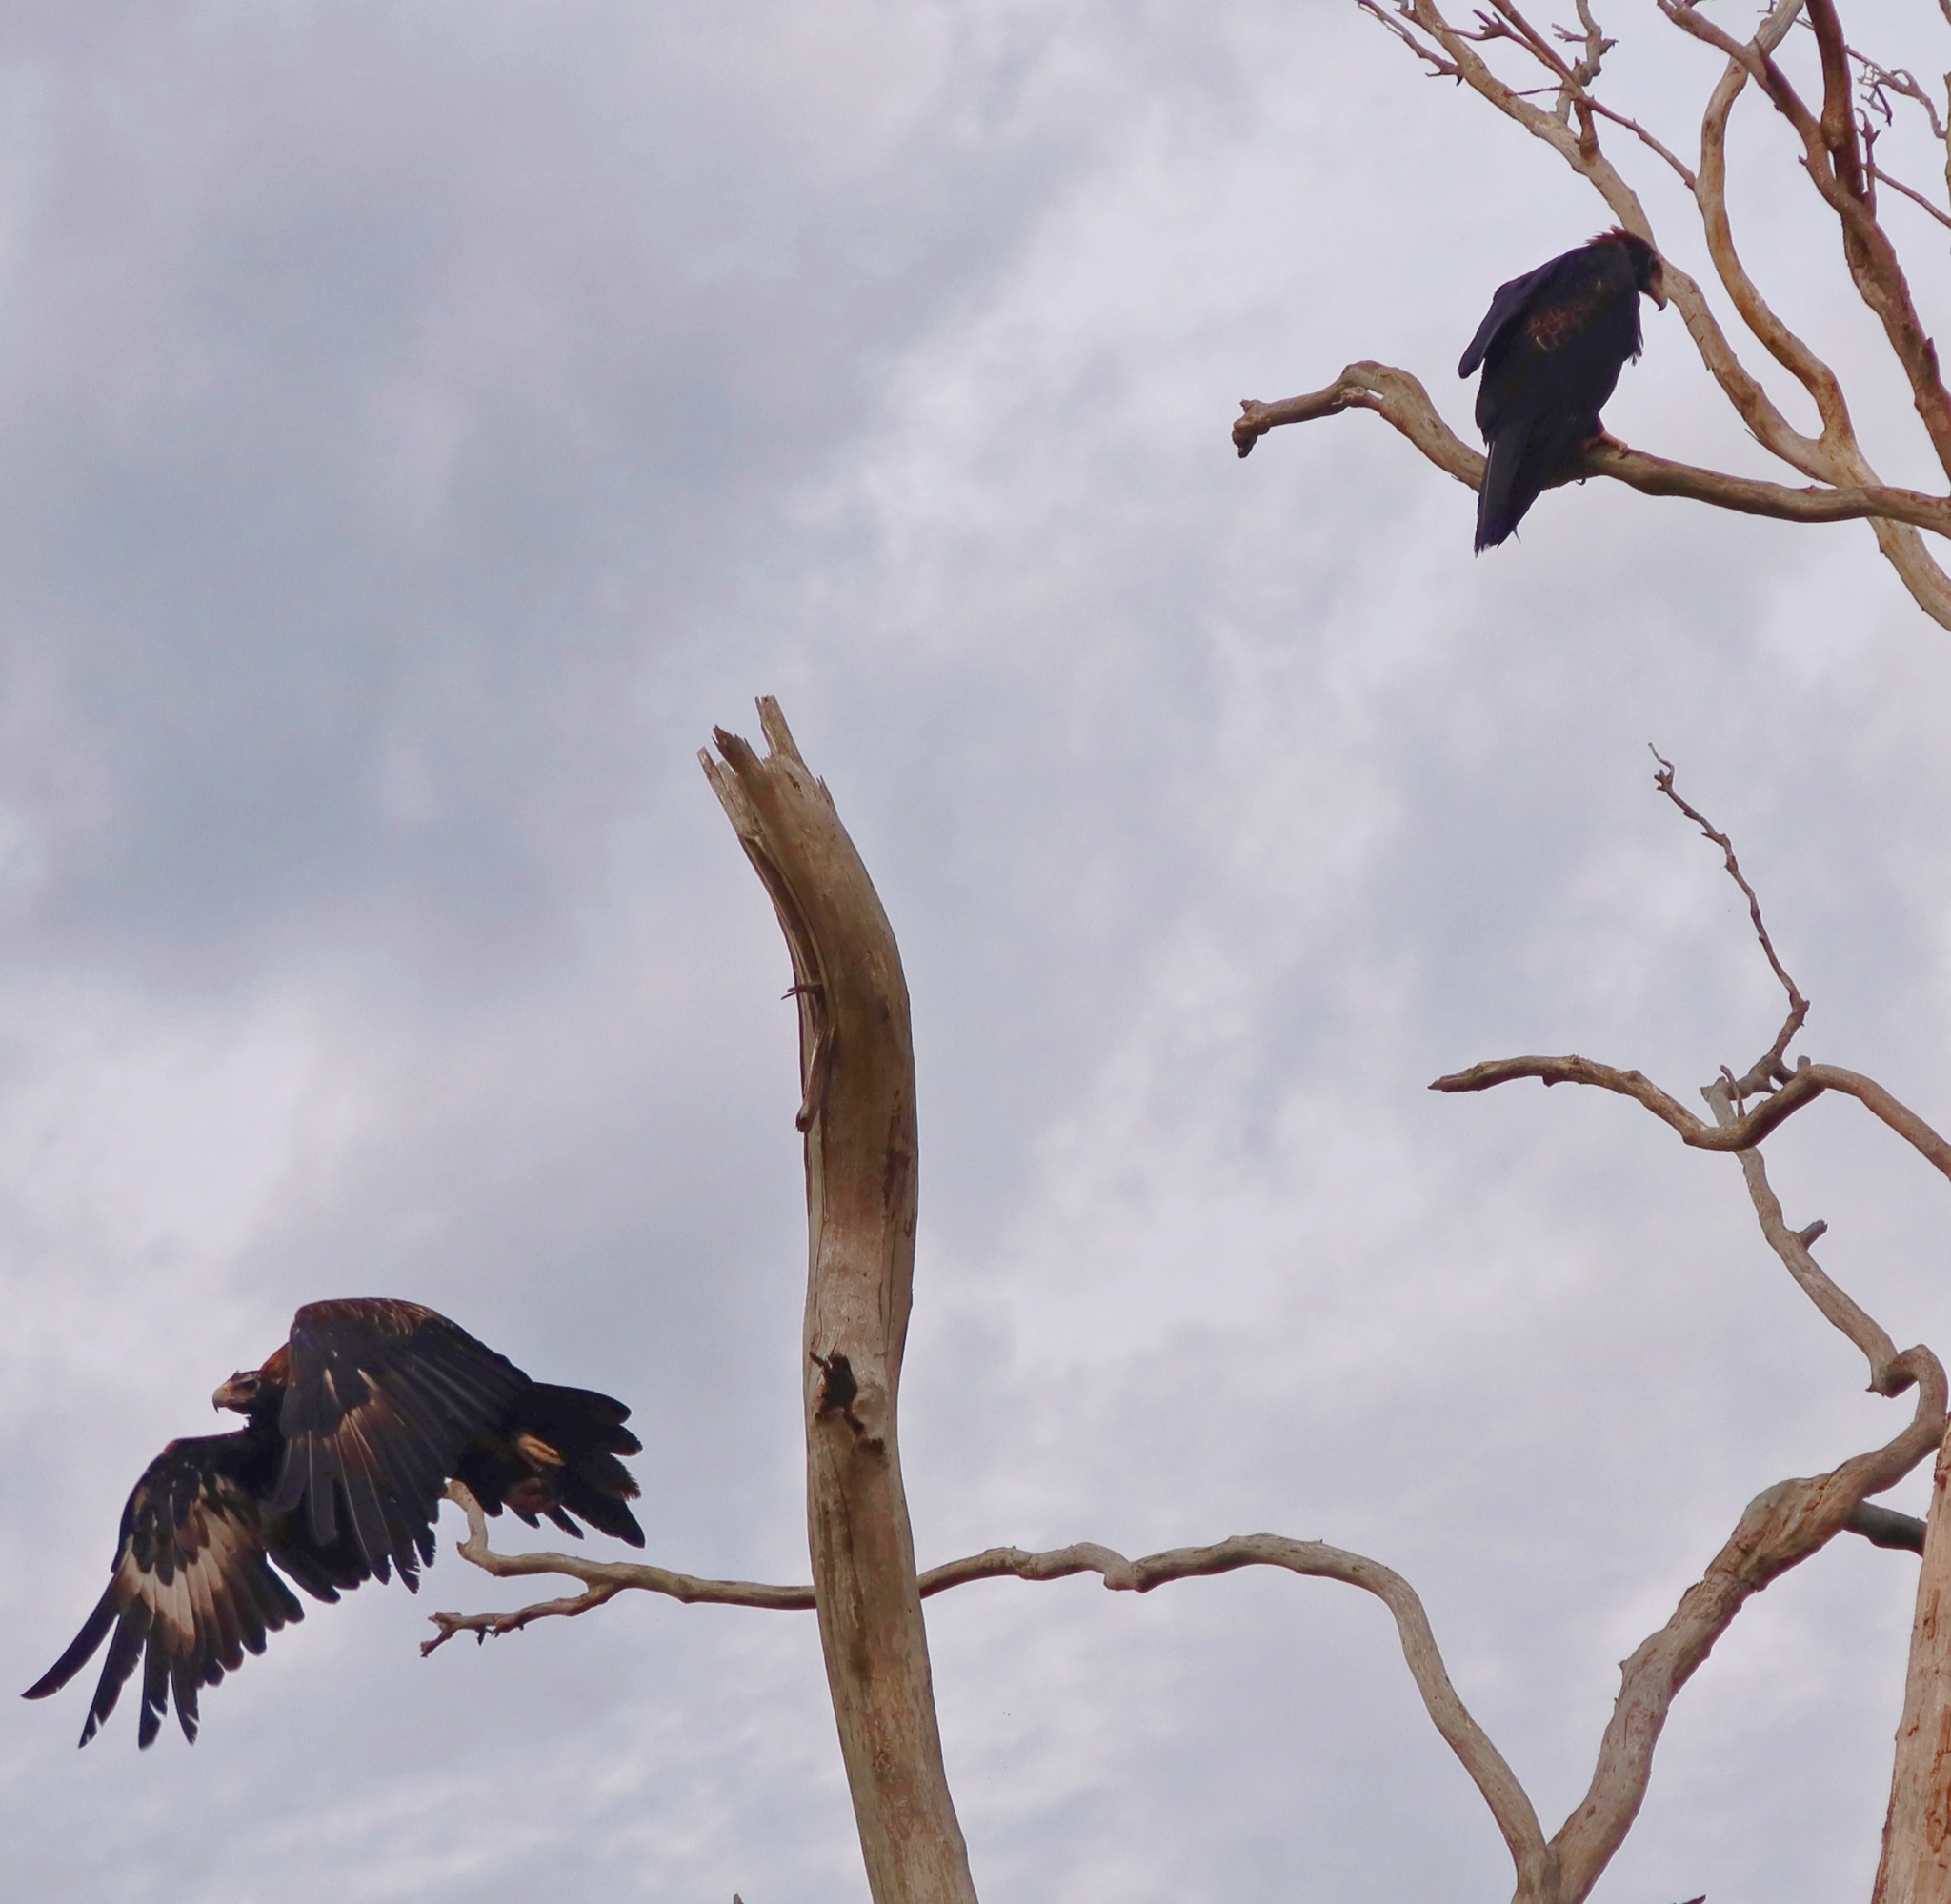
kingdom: Animalia
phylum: Chordata
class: Aves
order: Accipitriformes
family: Accipitridae
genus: Aquila
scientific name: Aquila audax
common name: Wedge-tailed eagle
